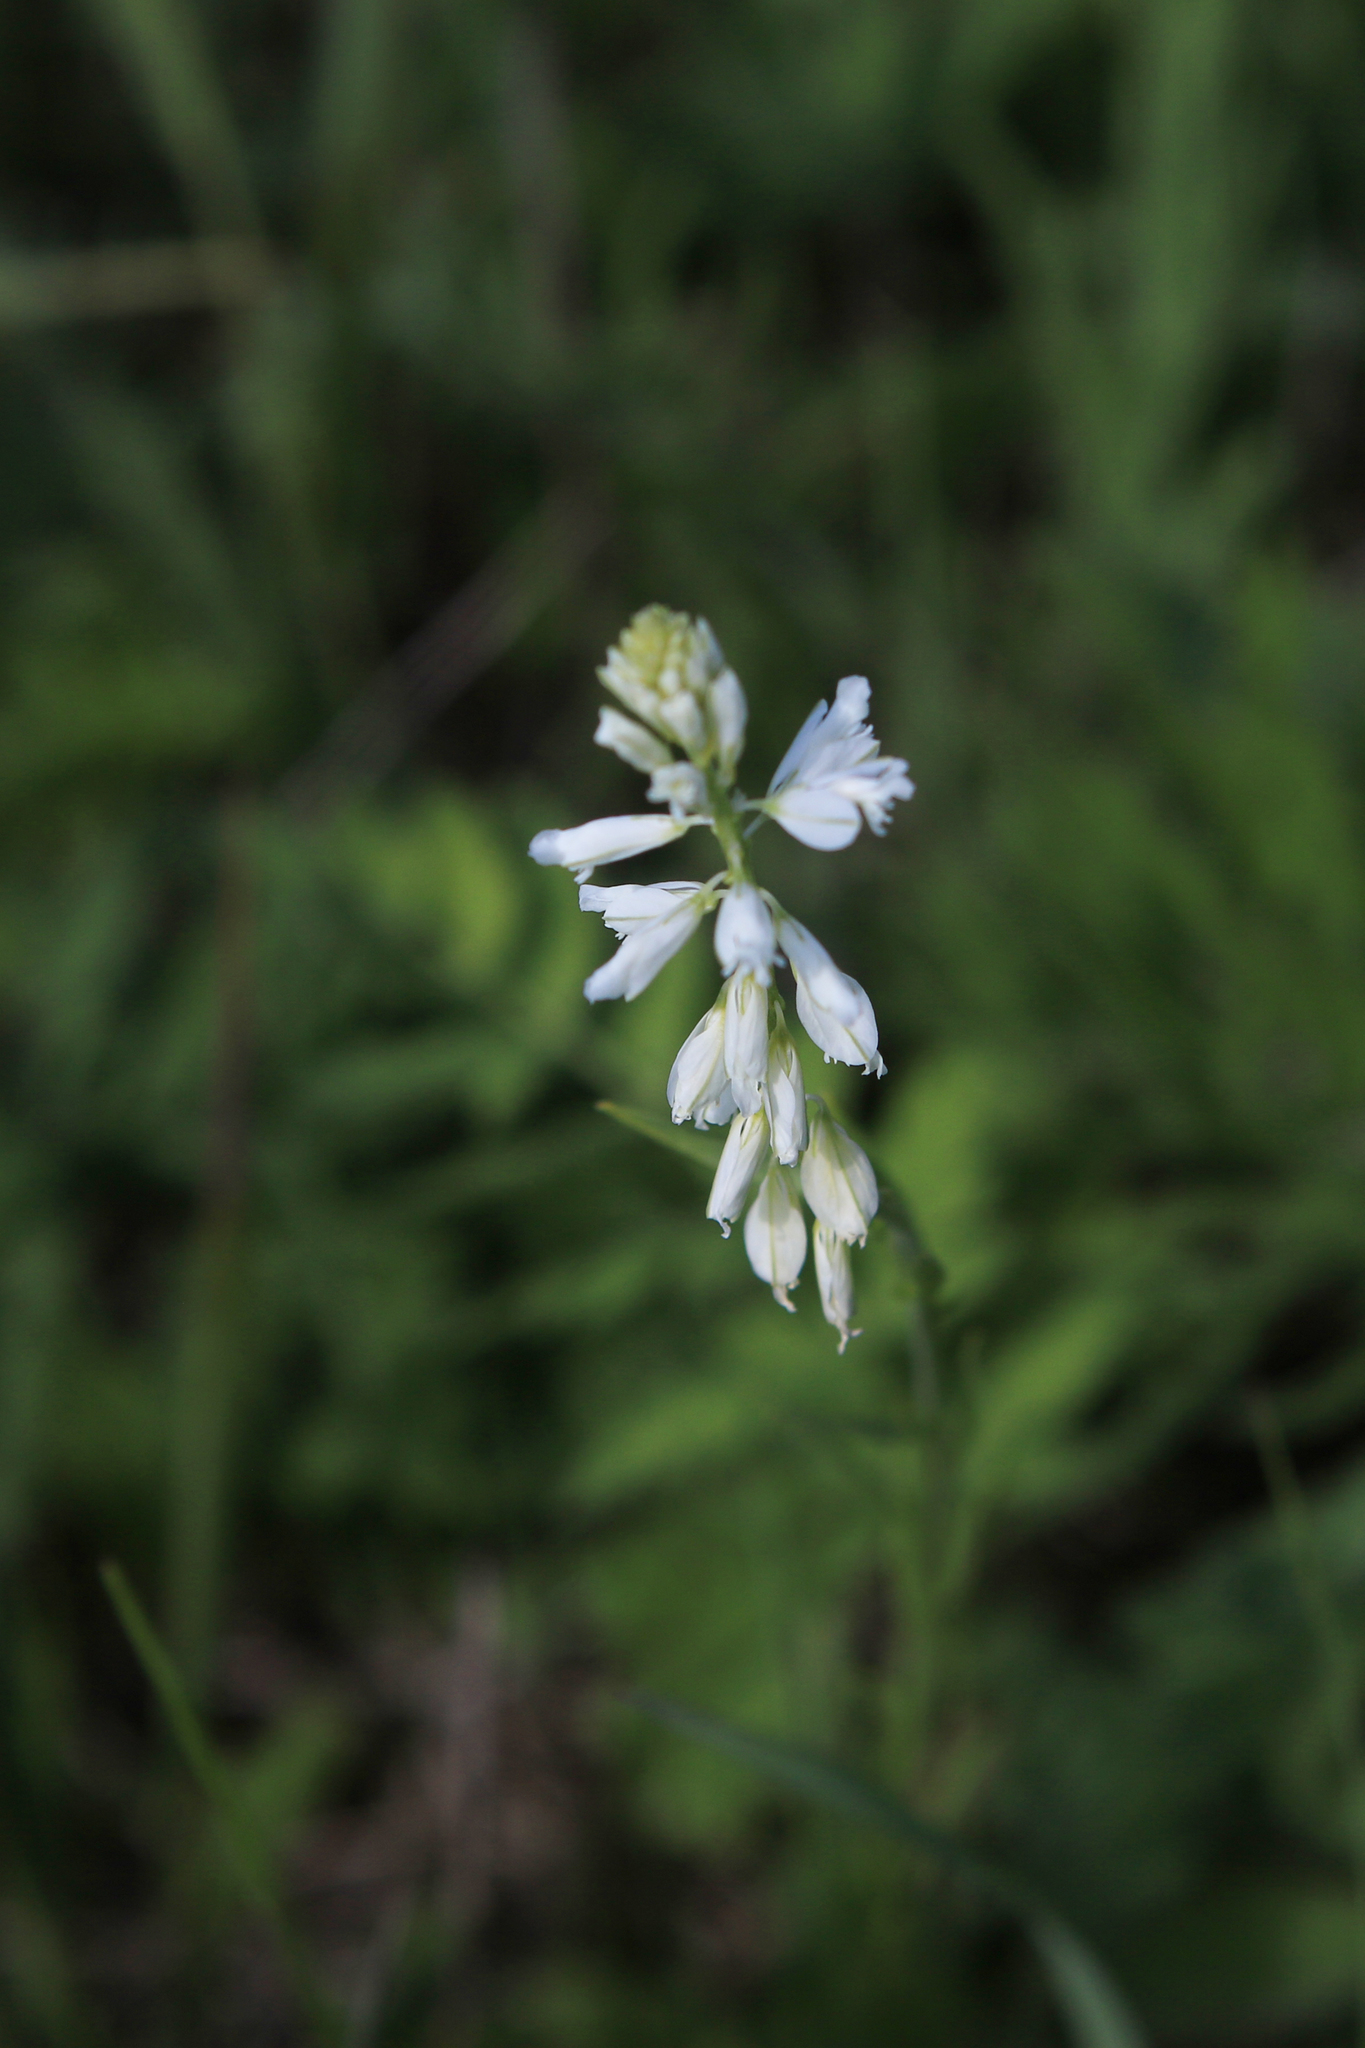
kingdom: Plantae
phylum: Tracheophyta
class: Magnoliopsida
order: Fabales
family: Polygalaceae
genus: Polygala
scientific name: Polygala comosa
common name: Tufted milkwort
